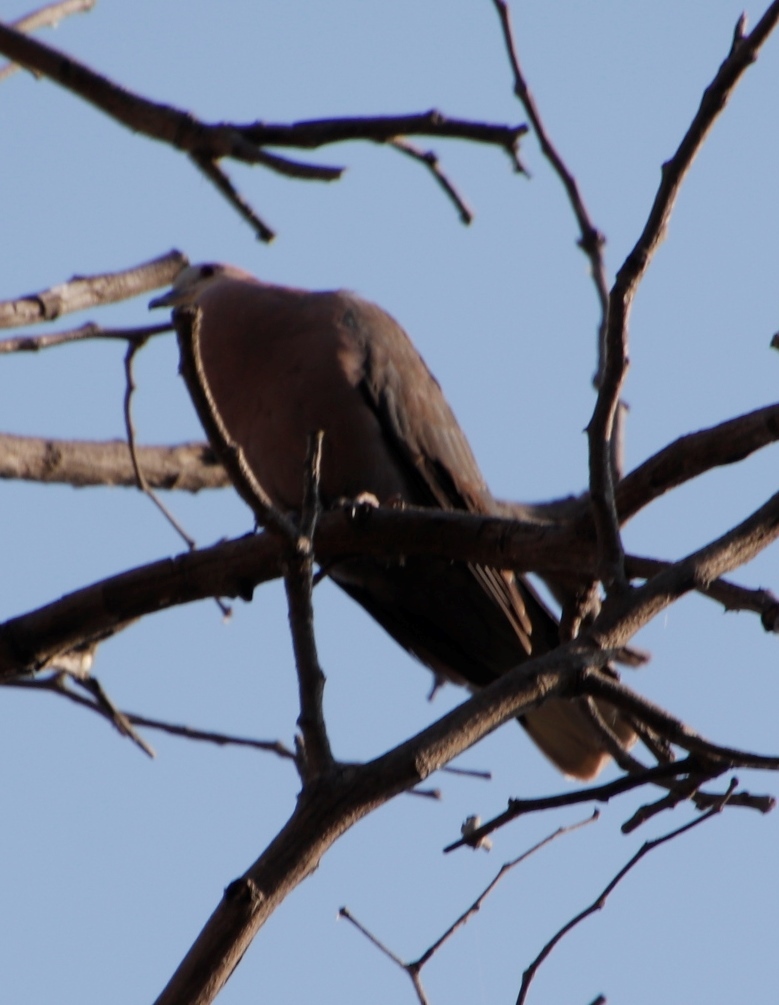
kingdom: Animalia
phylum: Chordata
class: Aves
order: Columbiformes
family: Columbidae
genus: Streptopelia
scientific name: Streptopelia semitorquata
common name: Red-eyed dove
